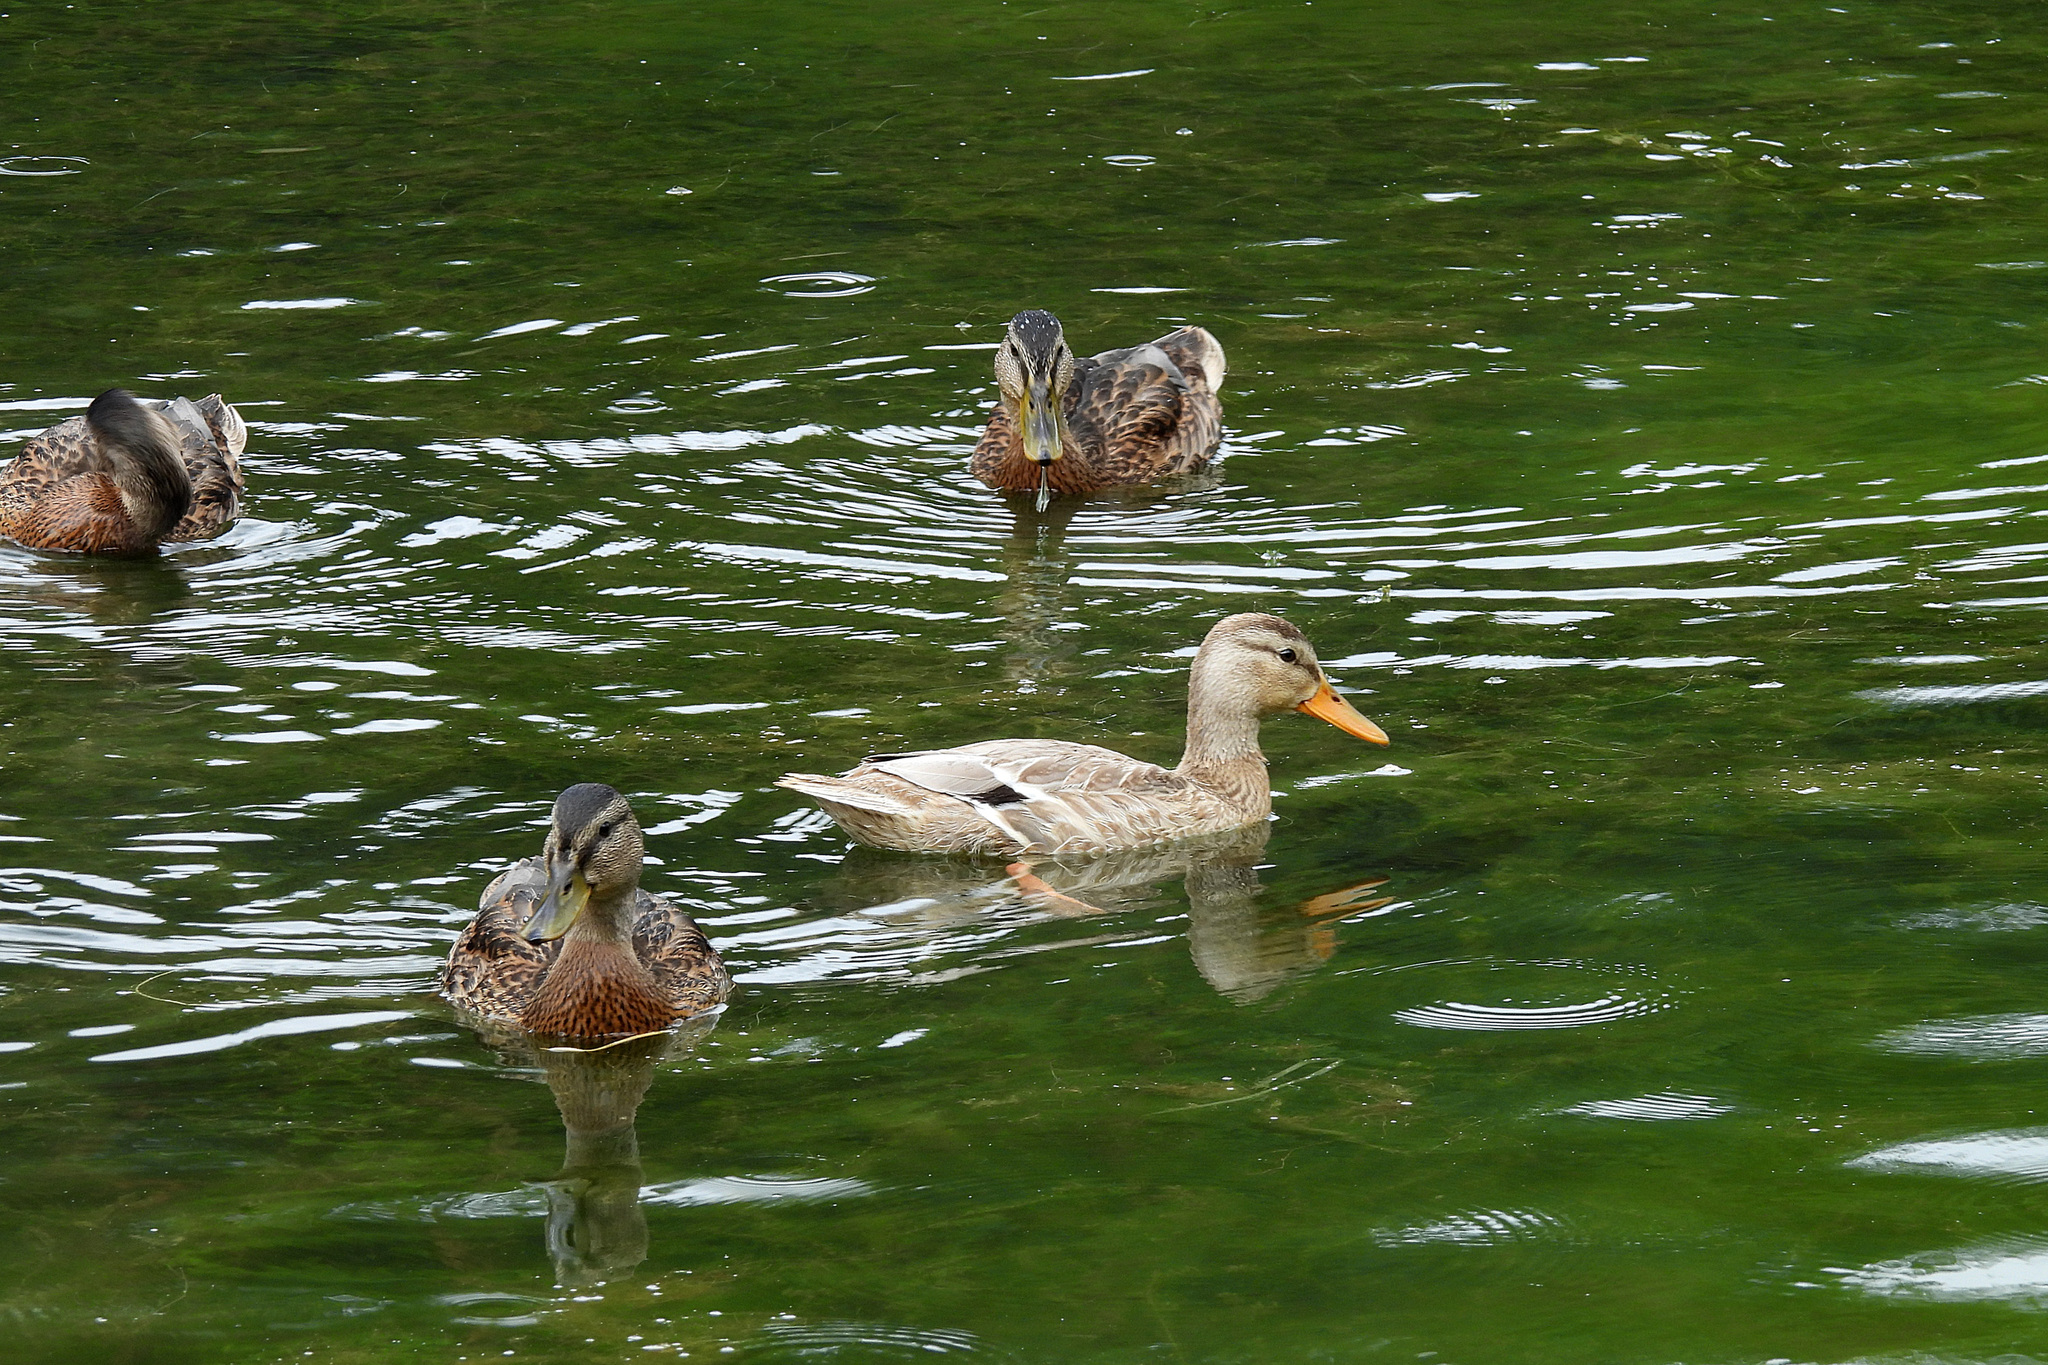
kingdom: Animalia
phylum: Chordata
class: Aves
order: Anseriformes
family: Anatidae
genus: Anas
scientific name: Anas platyrhynchos
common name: Mallard
